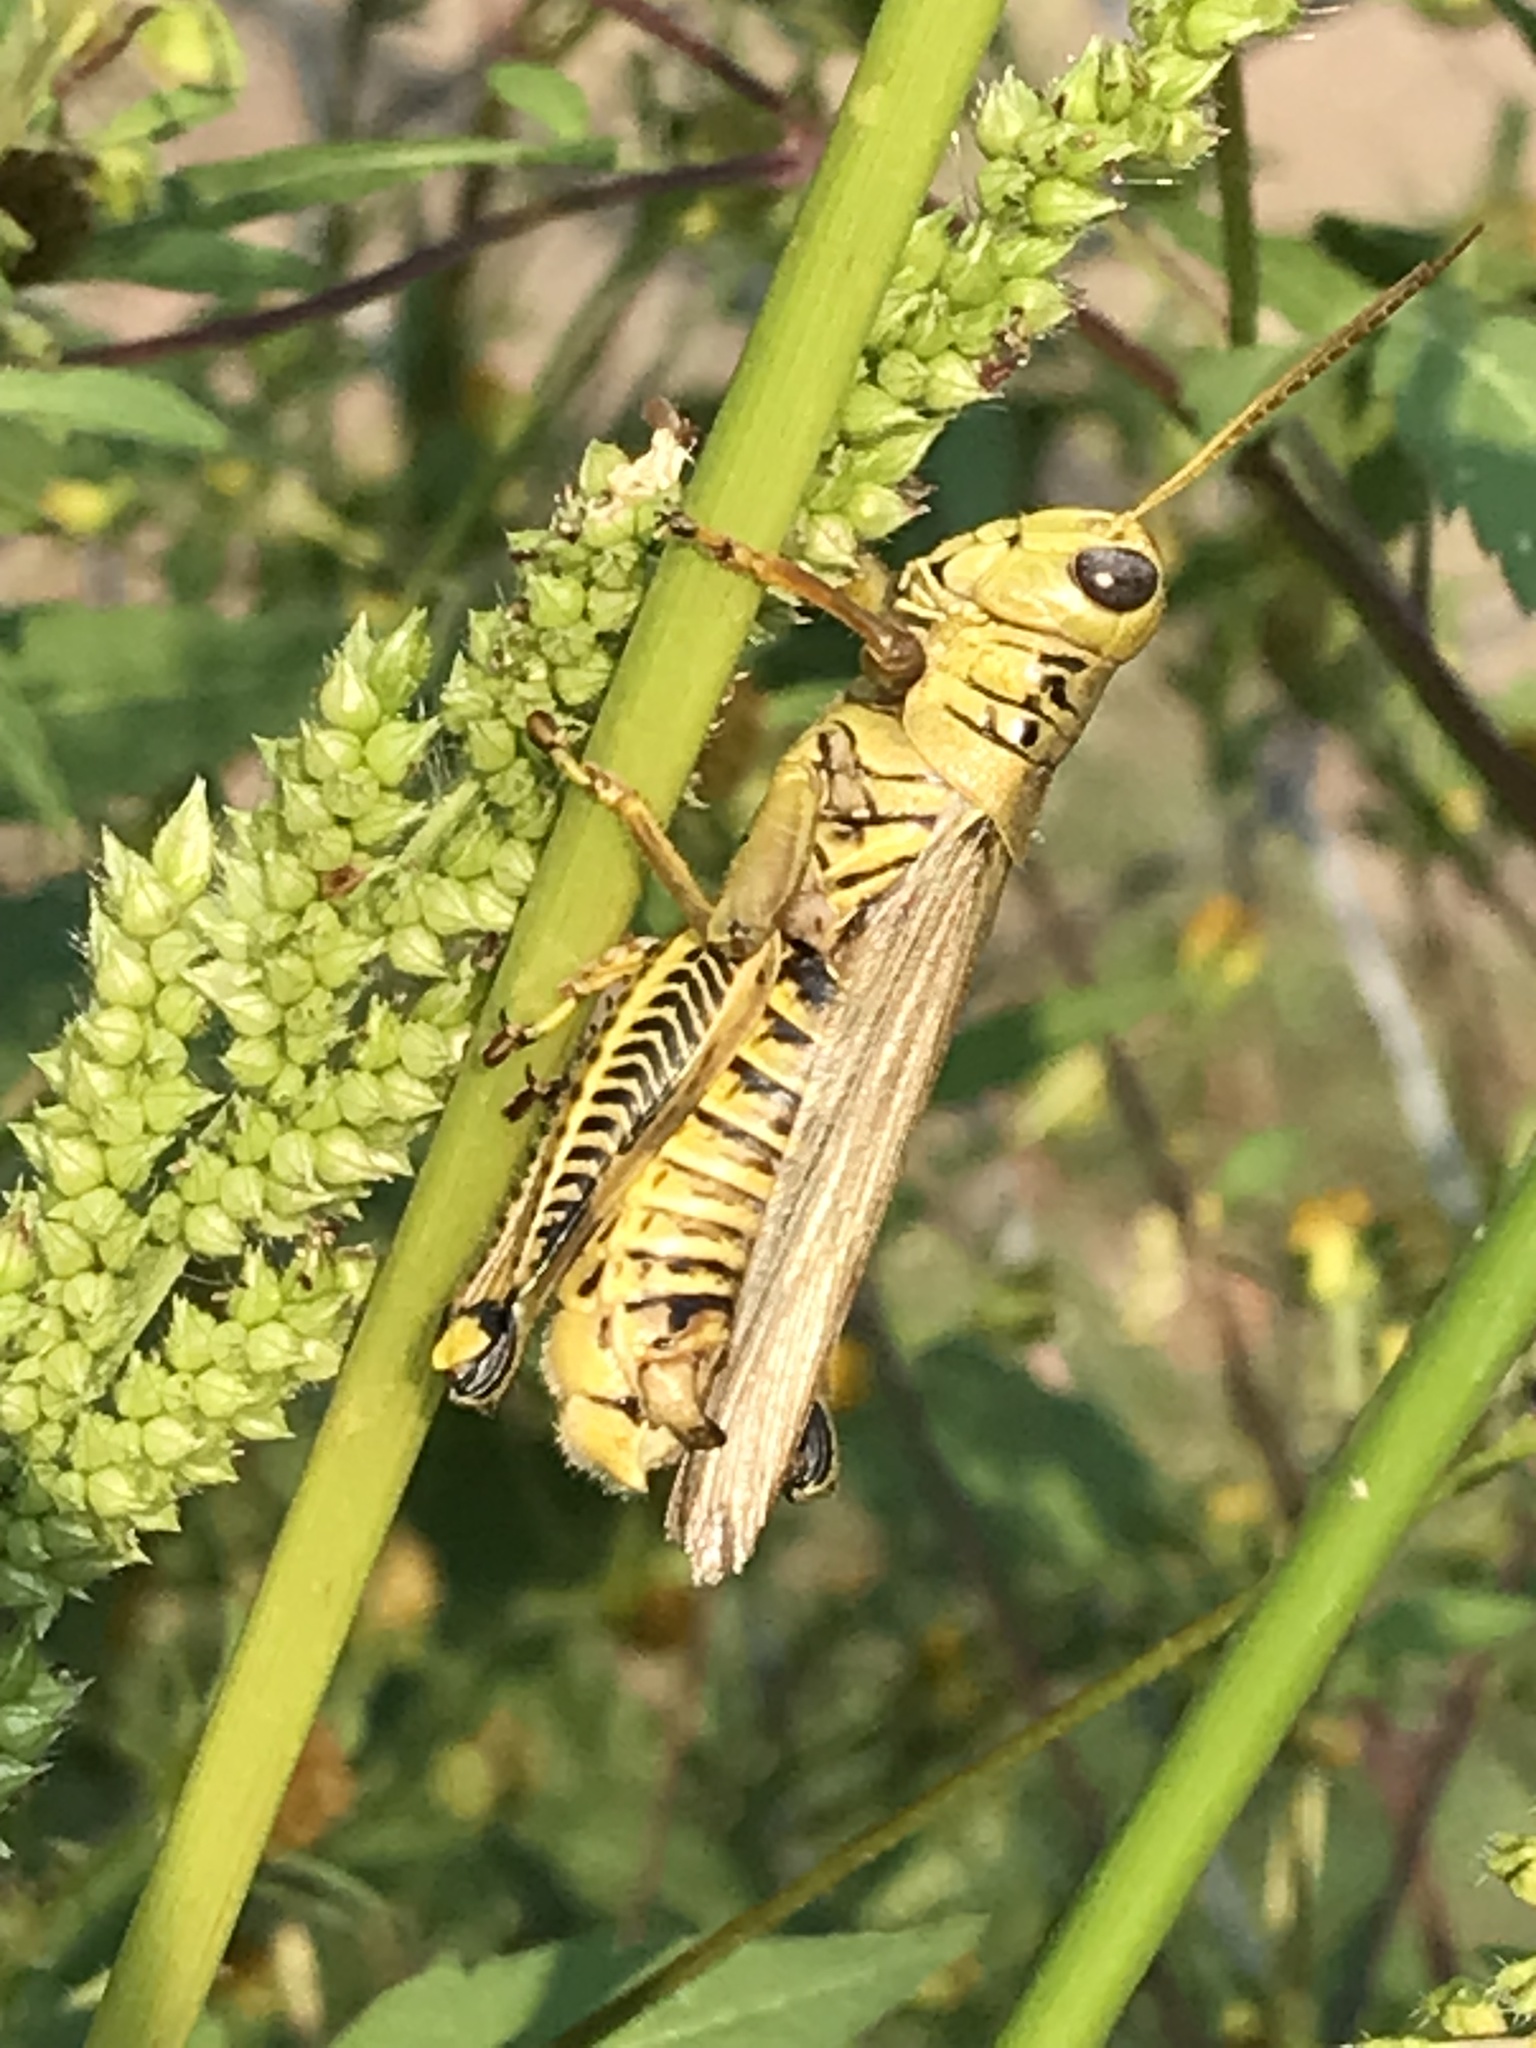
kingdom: Animalia
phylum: Arthropoda
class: Insecta
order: Orthoptera
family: Acrididae
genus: Melanoplus
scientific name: Melanoplus differentialis
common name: Differential grasshopper
